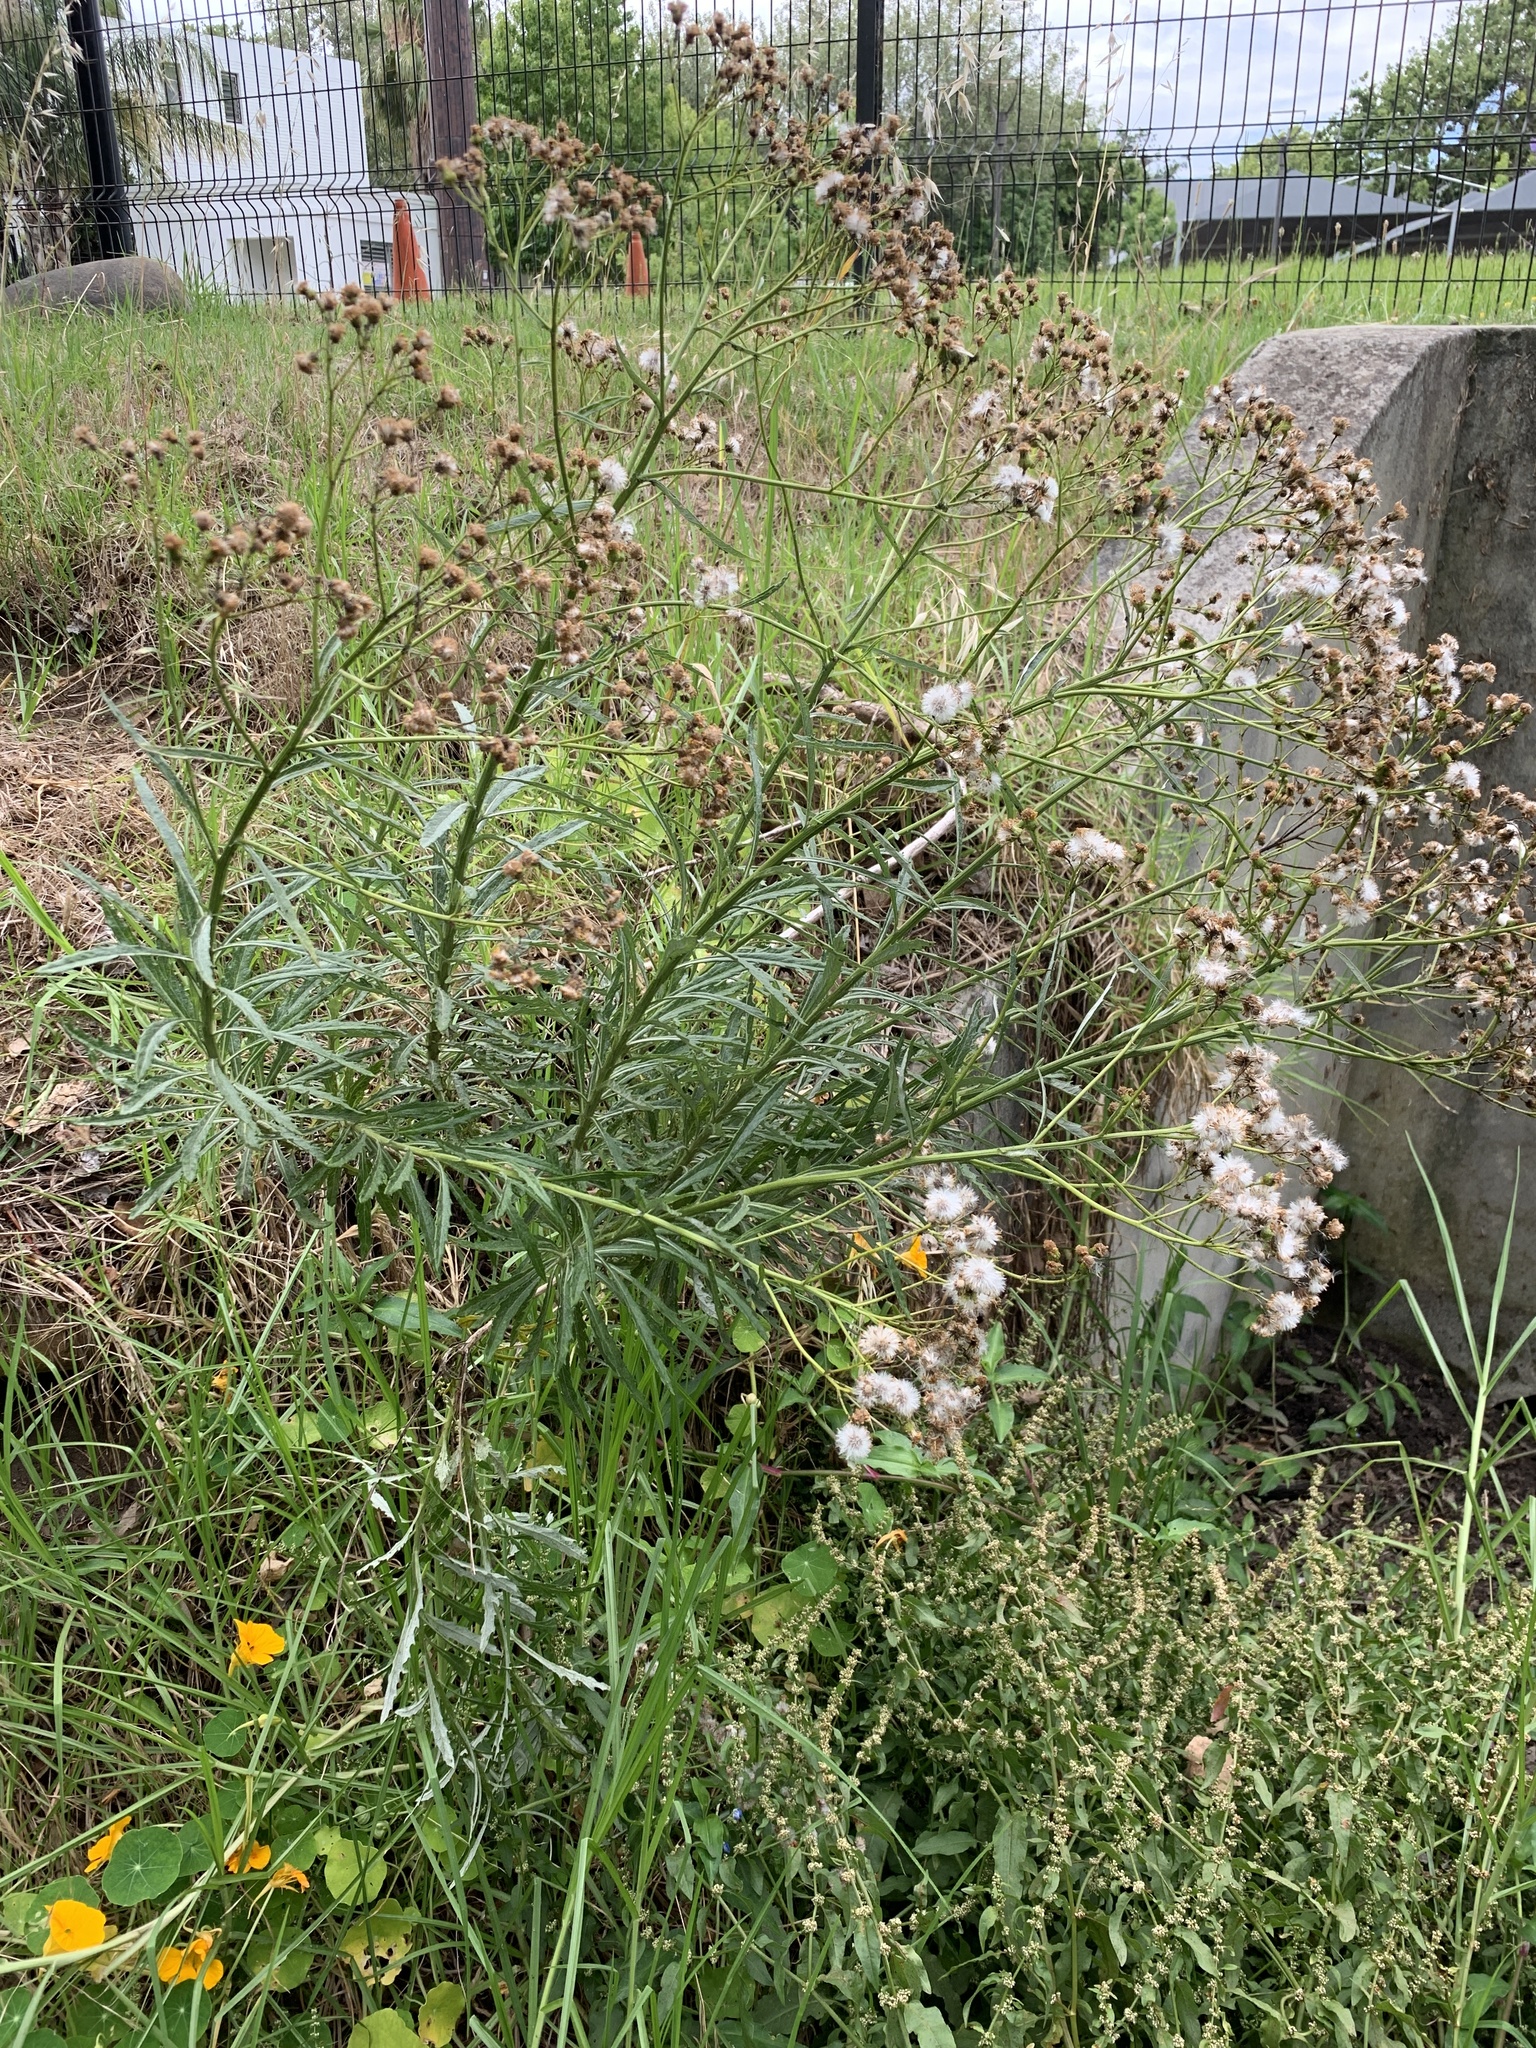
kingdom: Plantae
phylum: Tracheophyta
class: Magnoliopsida
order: Asterales
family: Asteraceae
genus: Senecio
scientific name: Senecio pterophorus
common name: Shoddy ragwort
